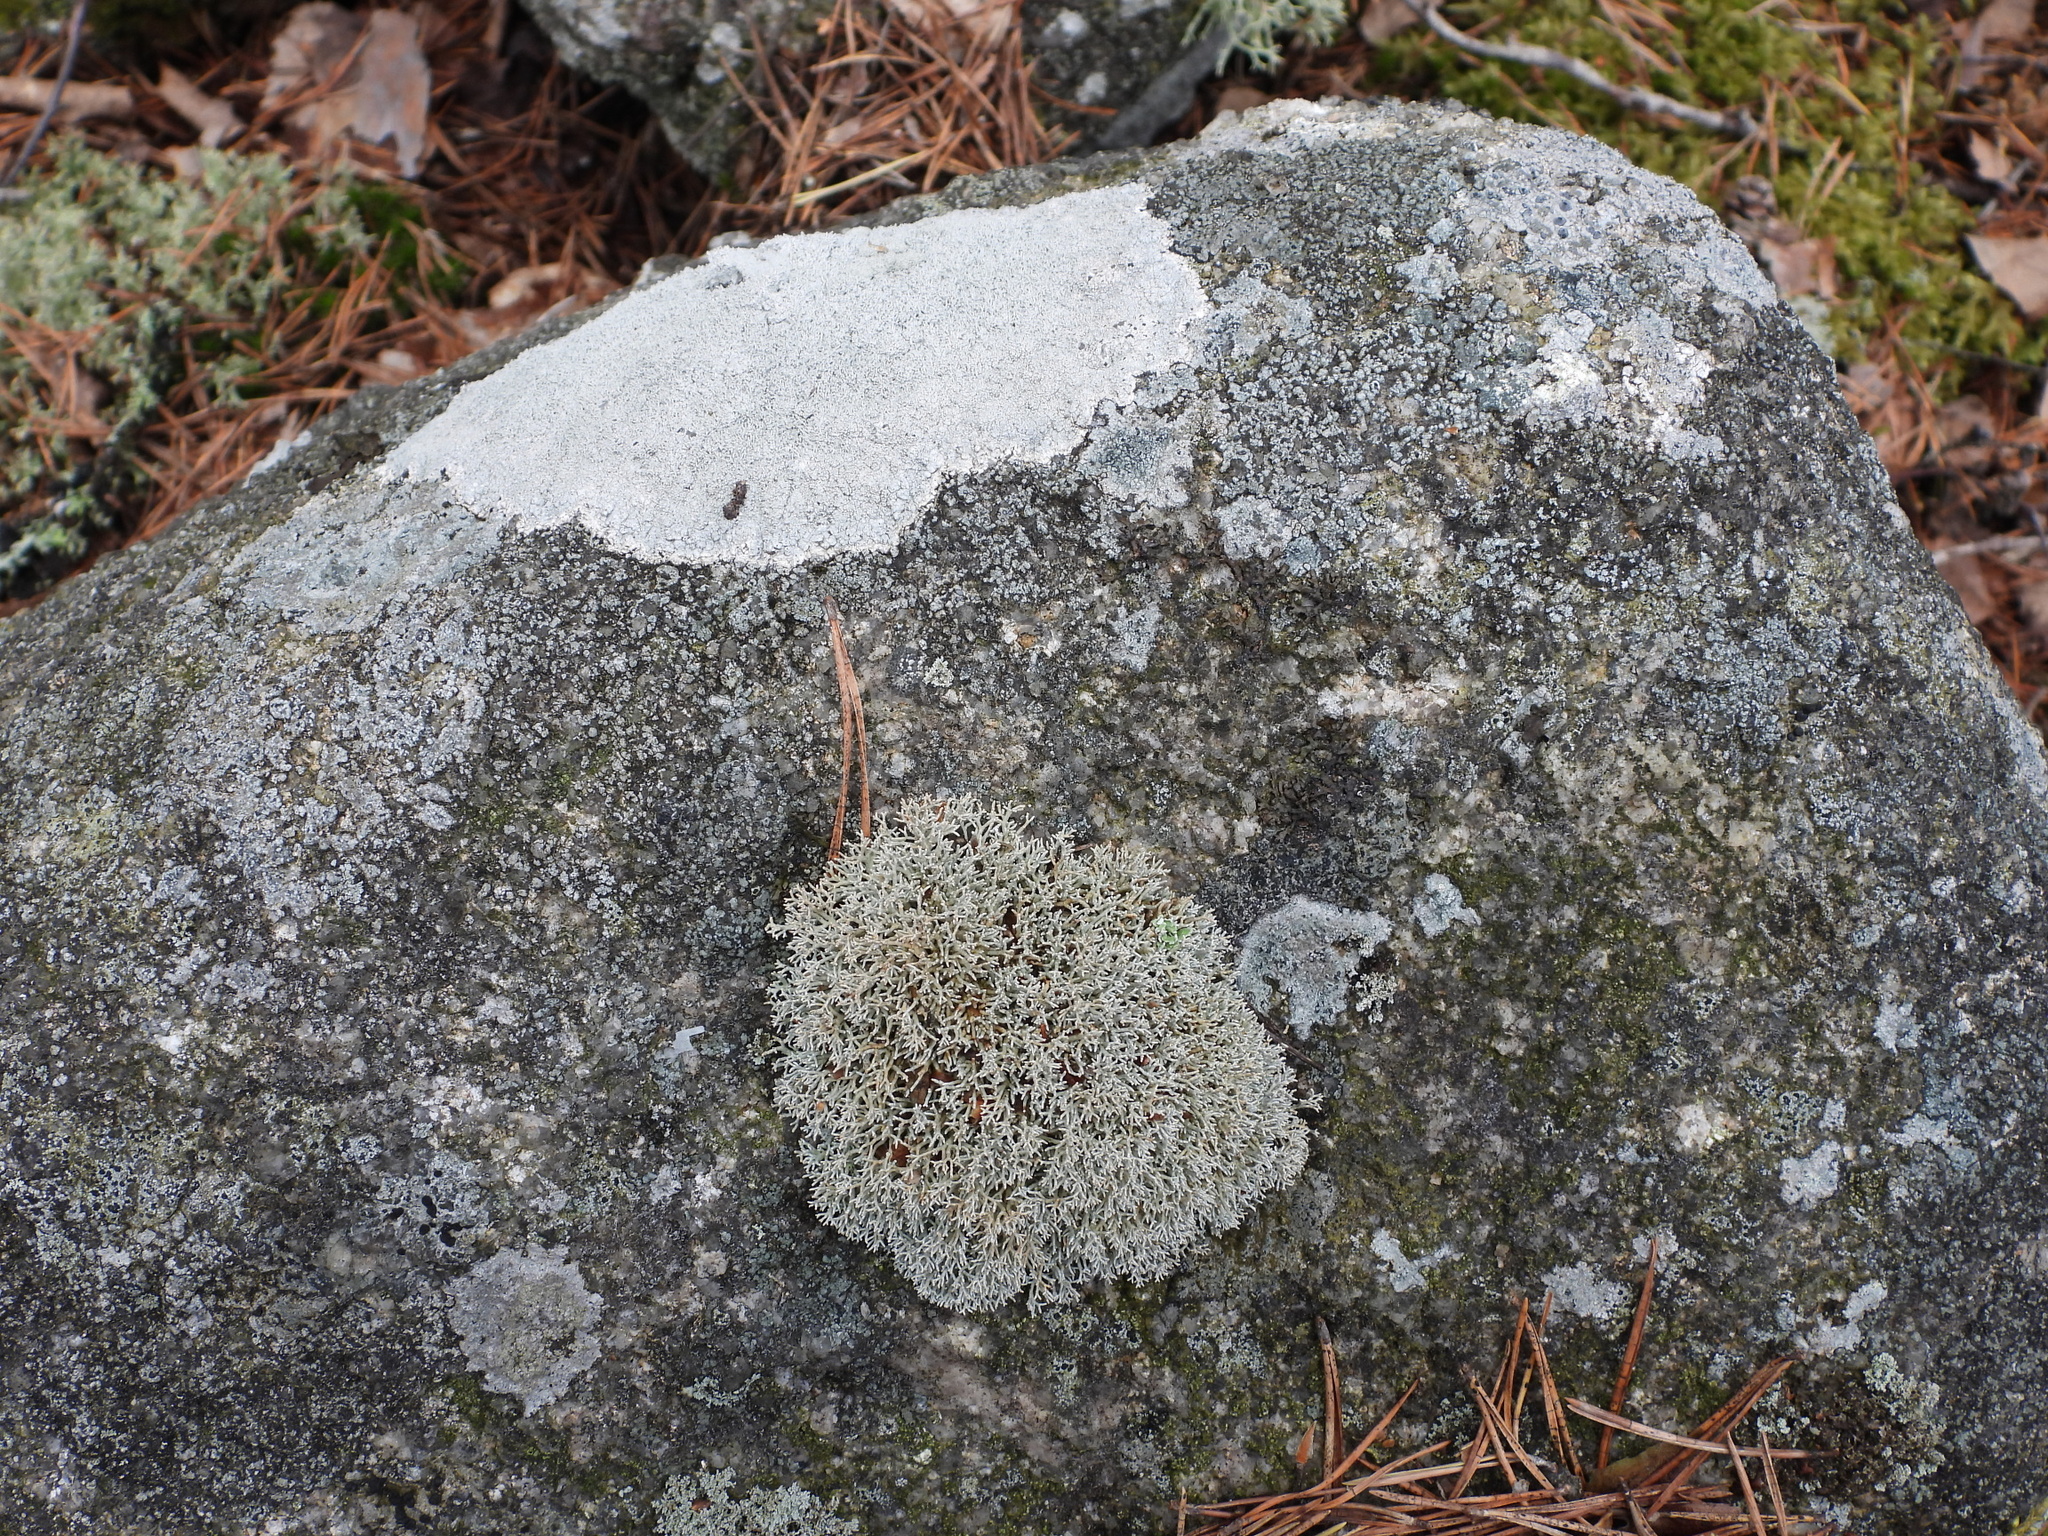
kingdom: Fungi
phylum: Ascomycota
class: Lecanoromycetes
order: Lecanorales
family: Sphaerophoraceae
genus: Sphaerophorus
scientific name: Sphaerophorus fragilis
